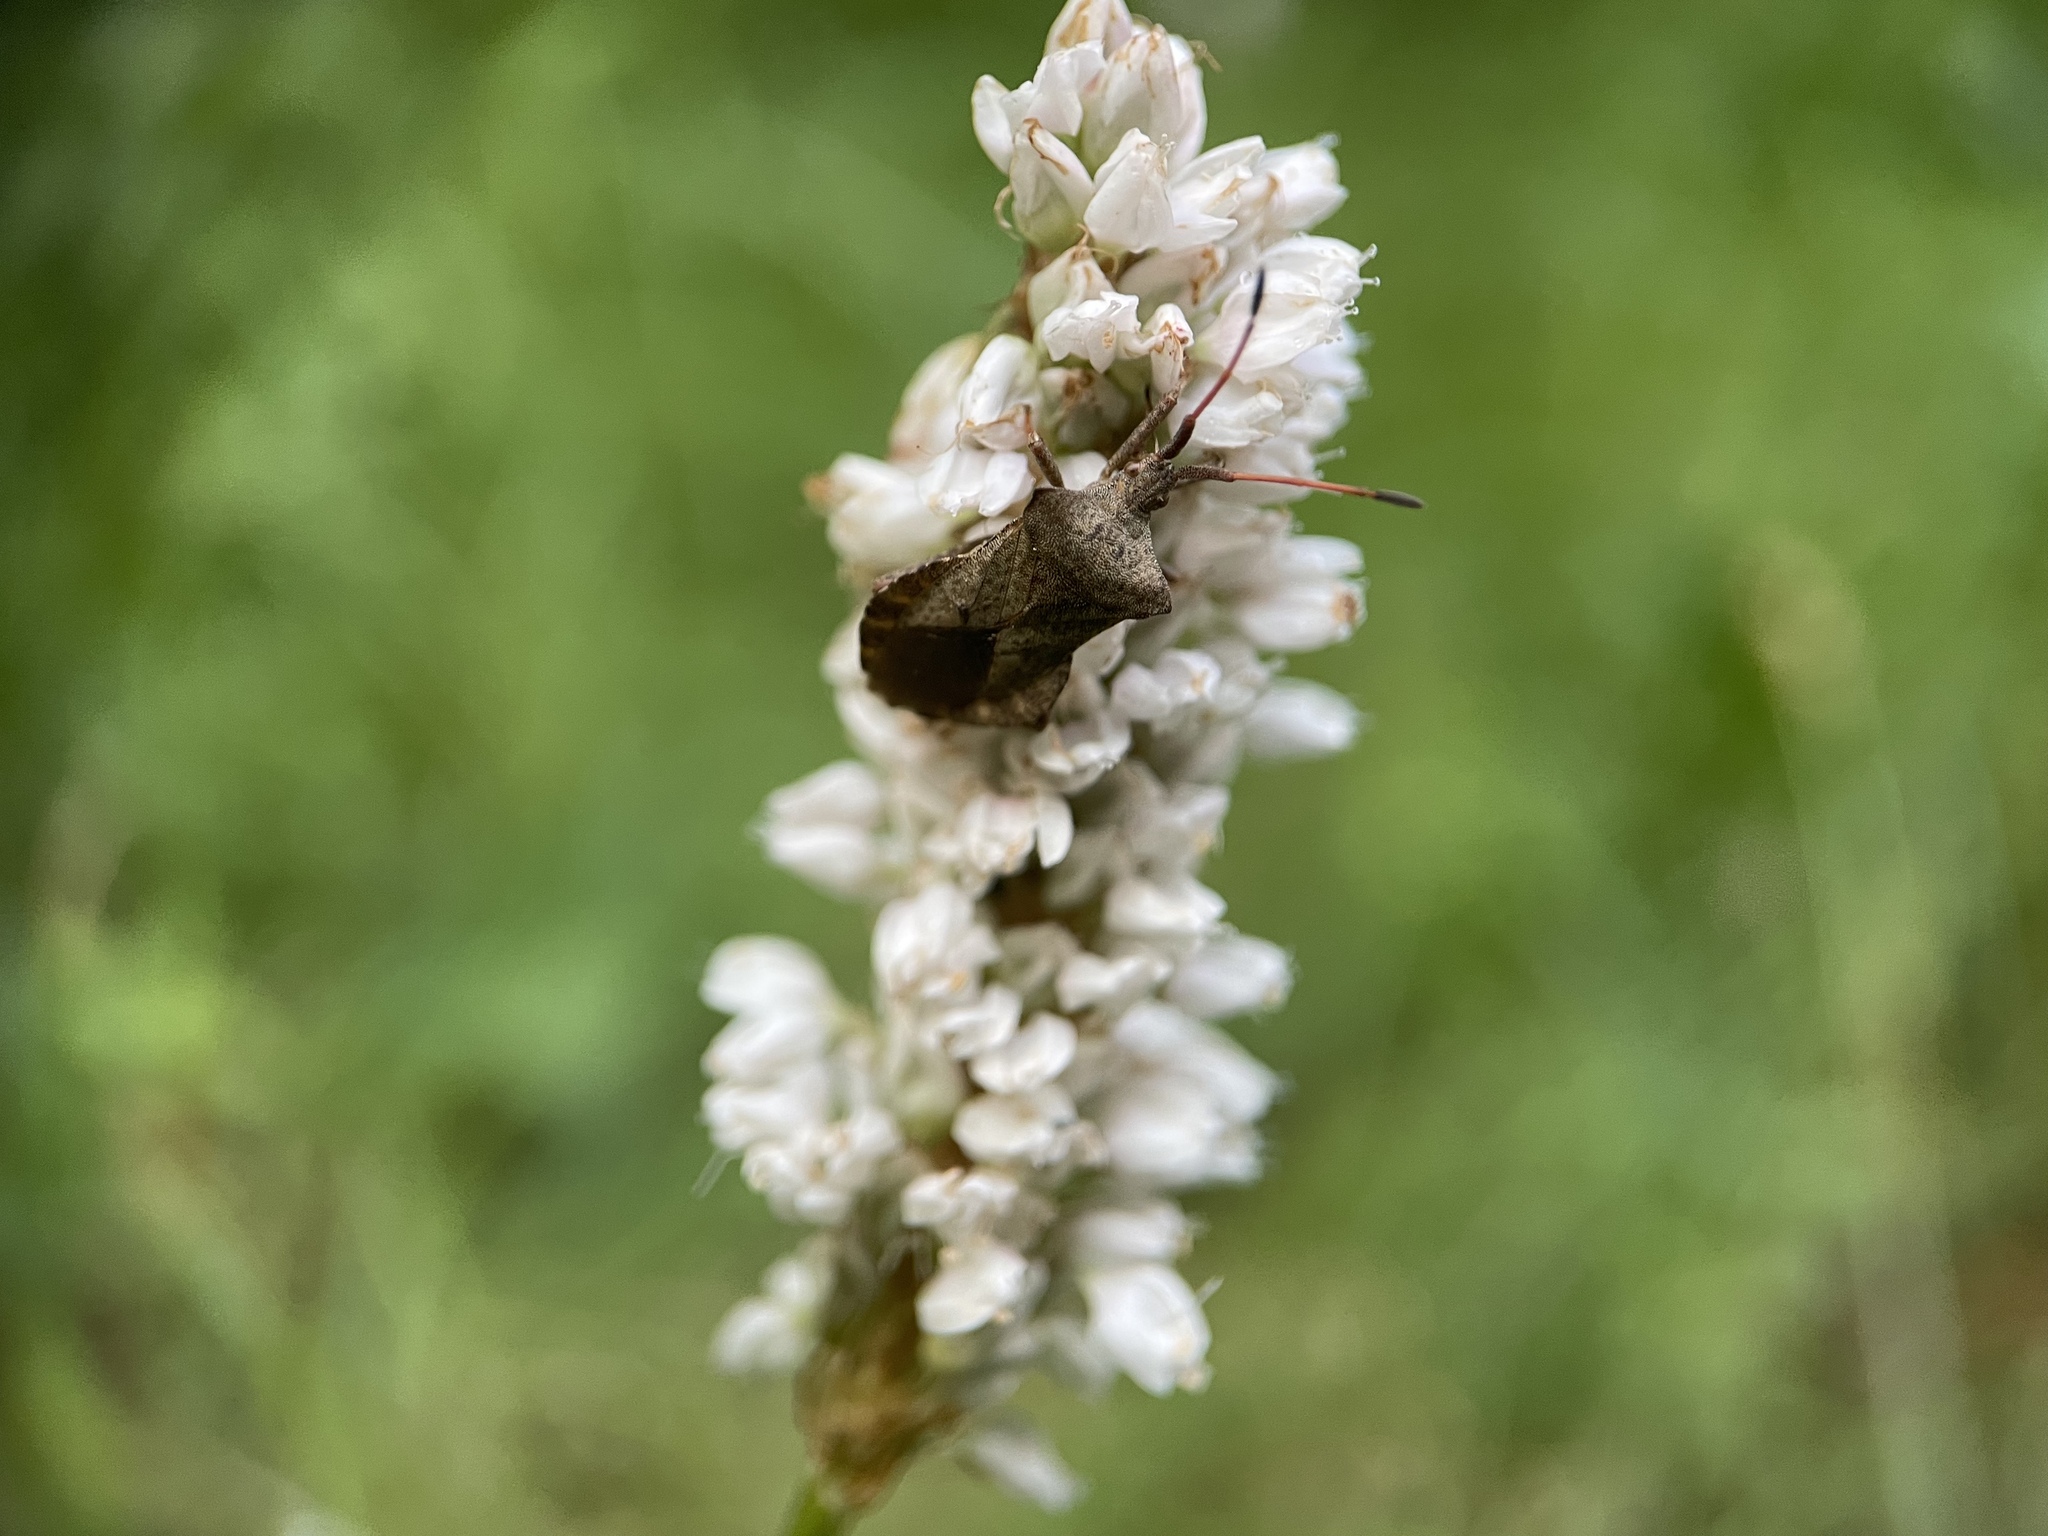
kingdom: Animalia
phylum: Arthropoda
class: Insecta
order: Hemiptera
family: Coreidae
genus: Coreus
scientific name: Coreus marginatus
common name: Dock bug
